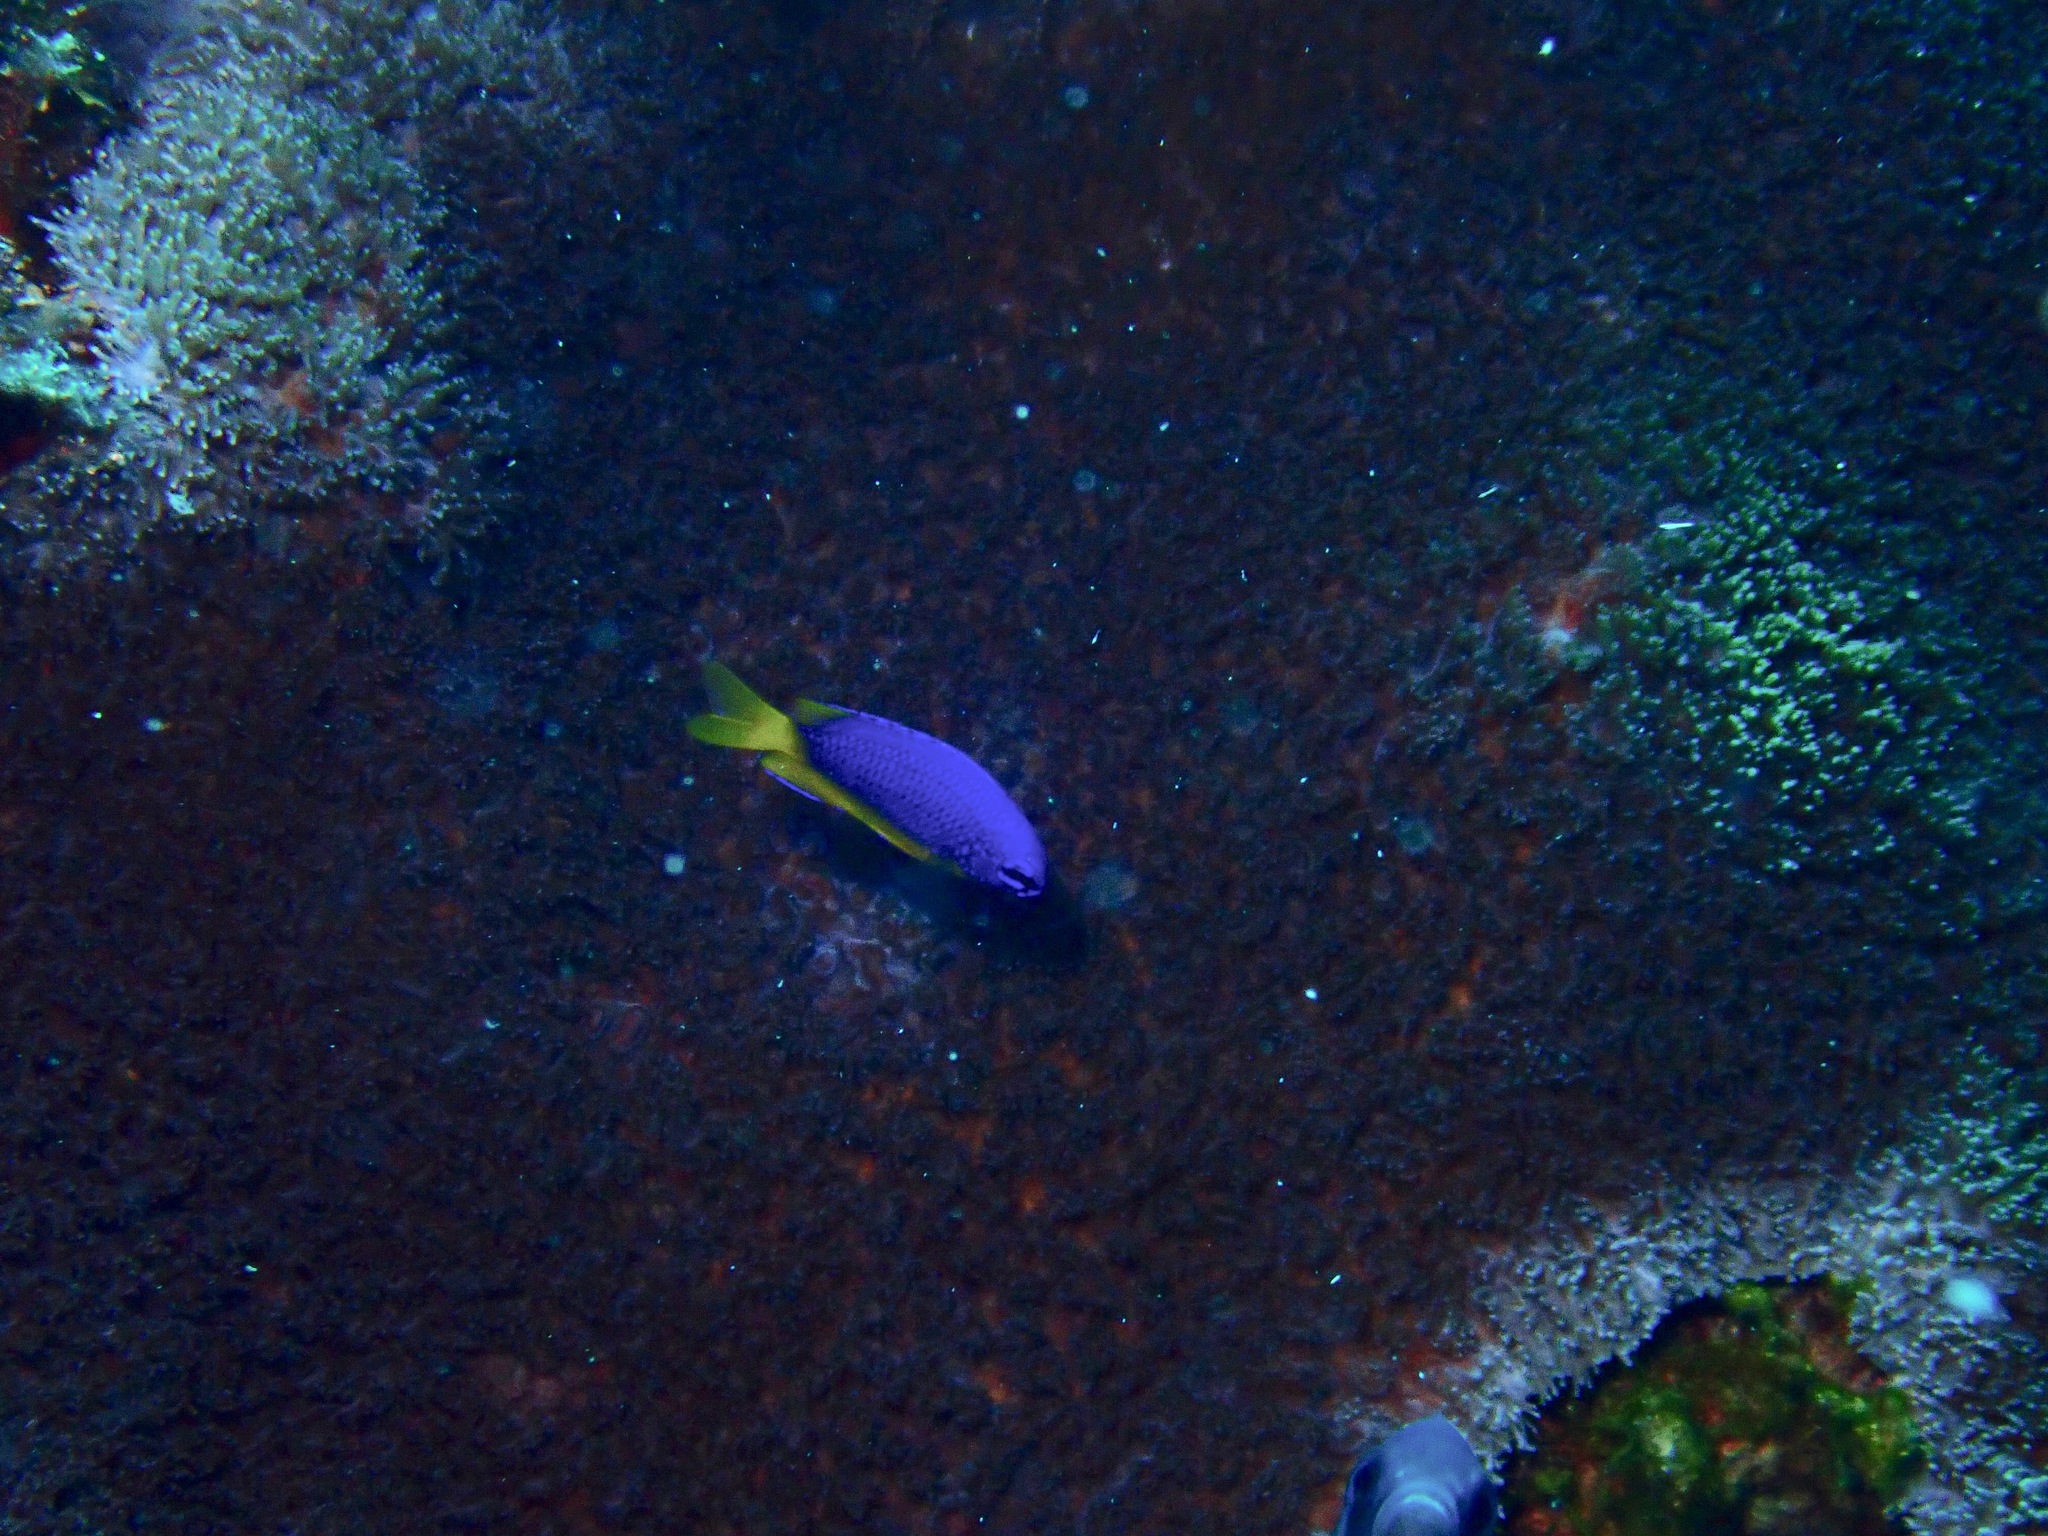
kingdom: Animalia
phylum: Chordata
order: Perciformes
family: Pomacentridae
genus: Pomacentrus
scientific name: Pomacentrus coelestis
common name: Neon damsel
